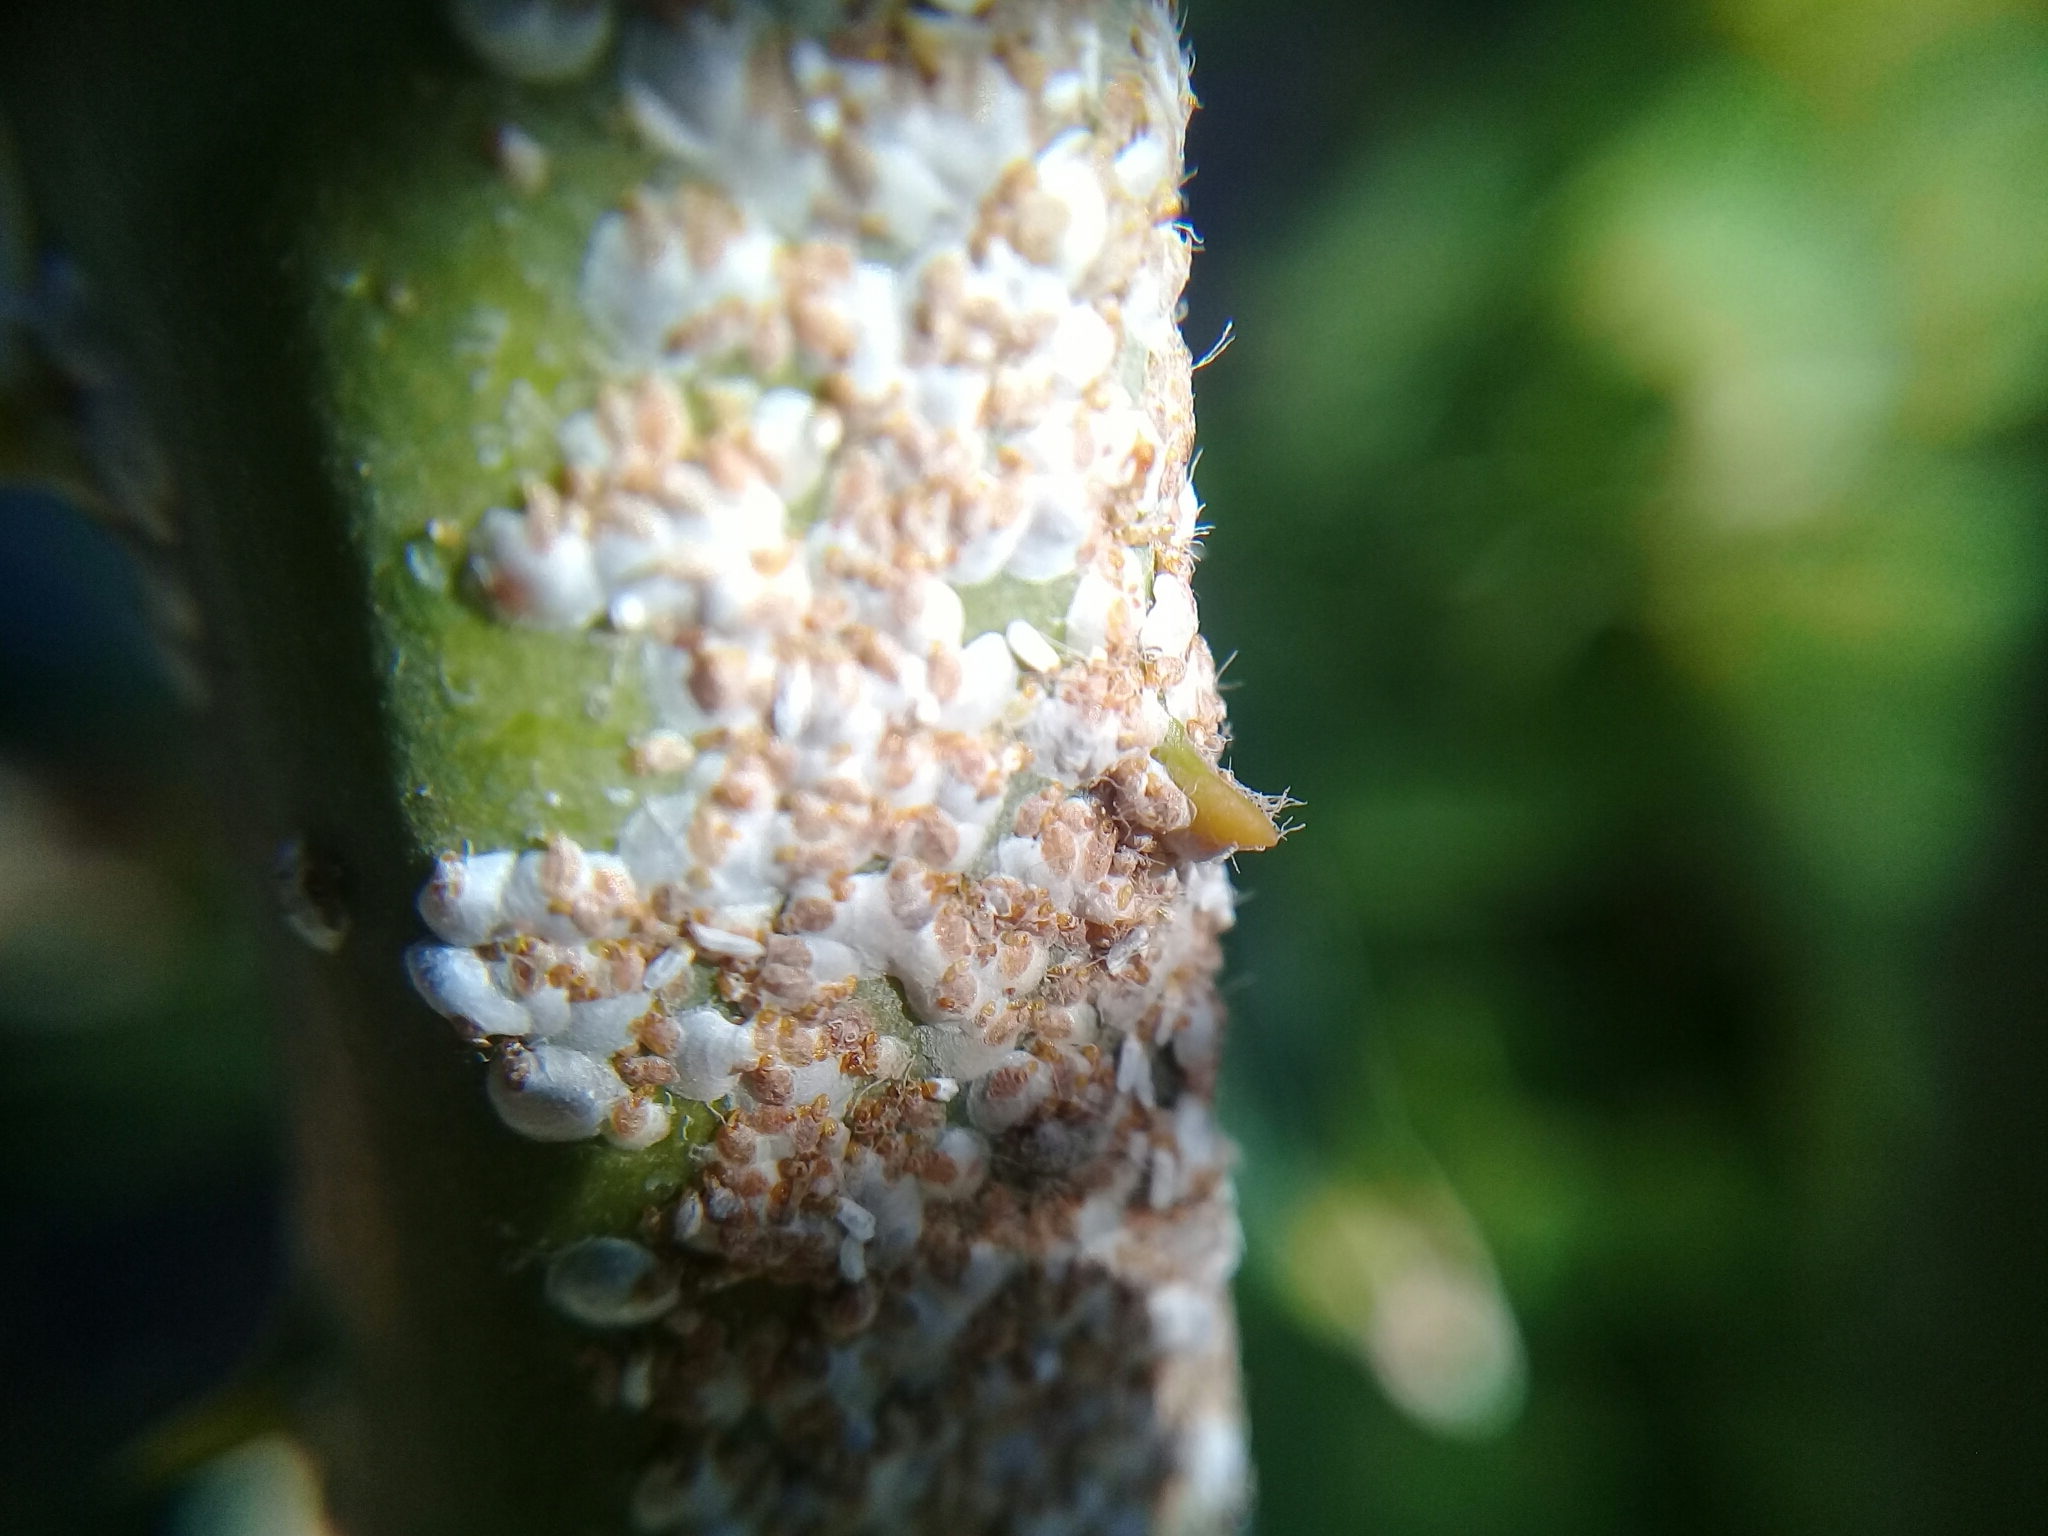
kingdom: Animalia
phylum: Arthropoda
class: Insecta
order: Hemiptera
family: Diaspididae
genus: Aulacaspis
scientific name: Aulacaspis yasumatsui
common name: Cycad aulacaspis scale
